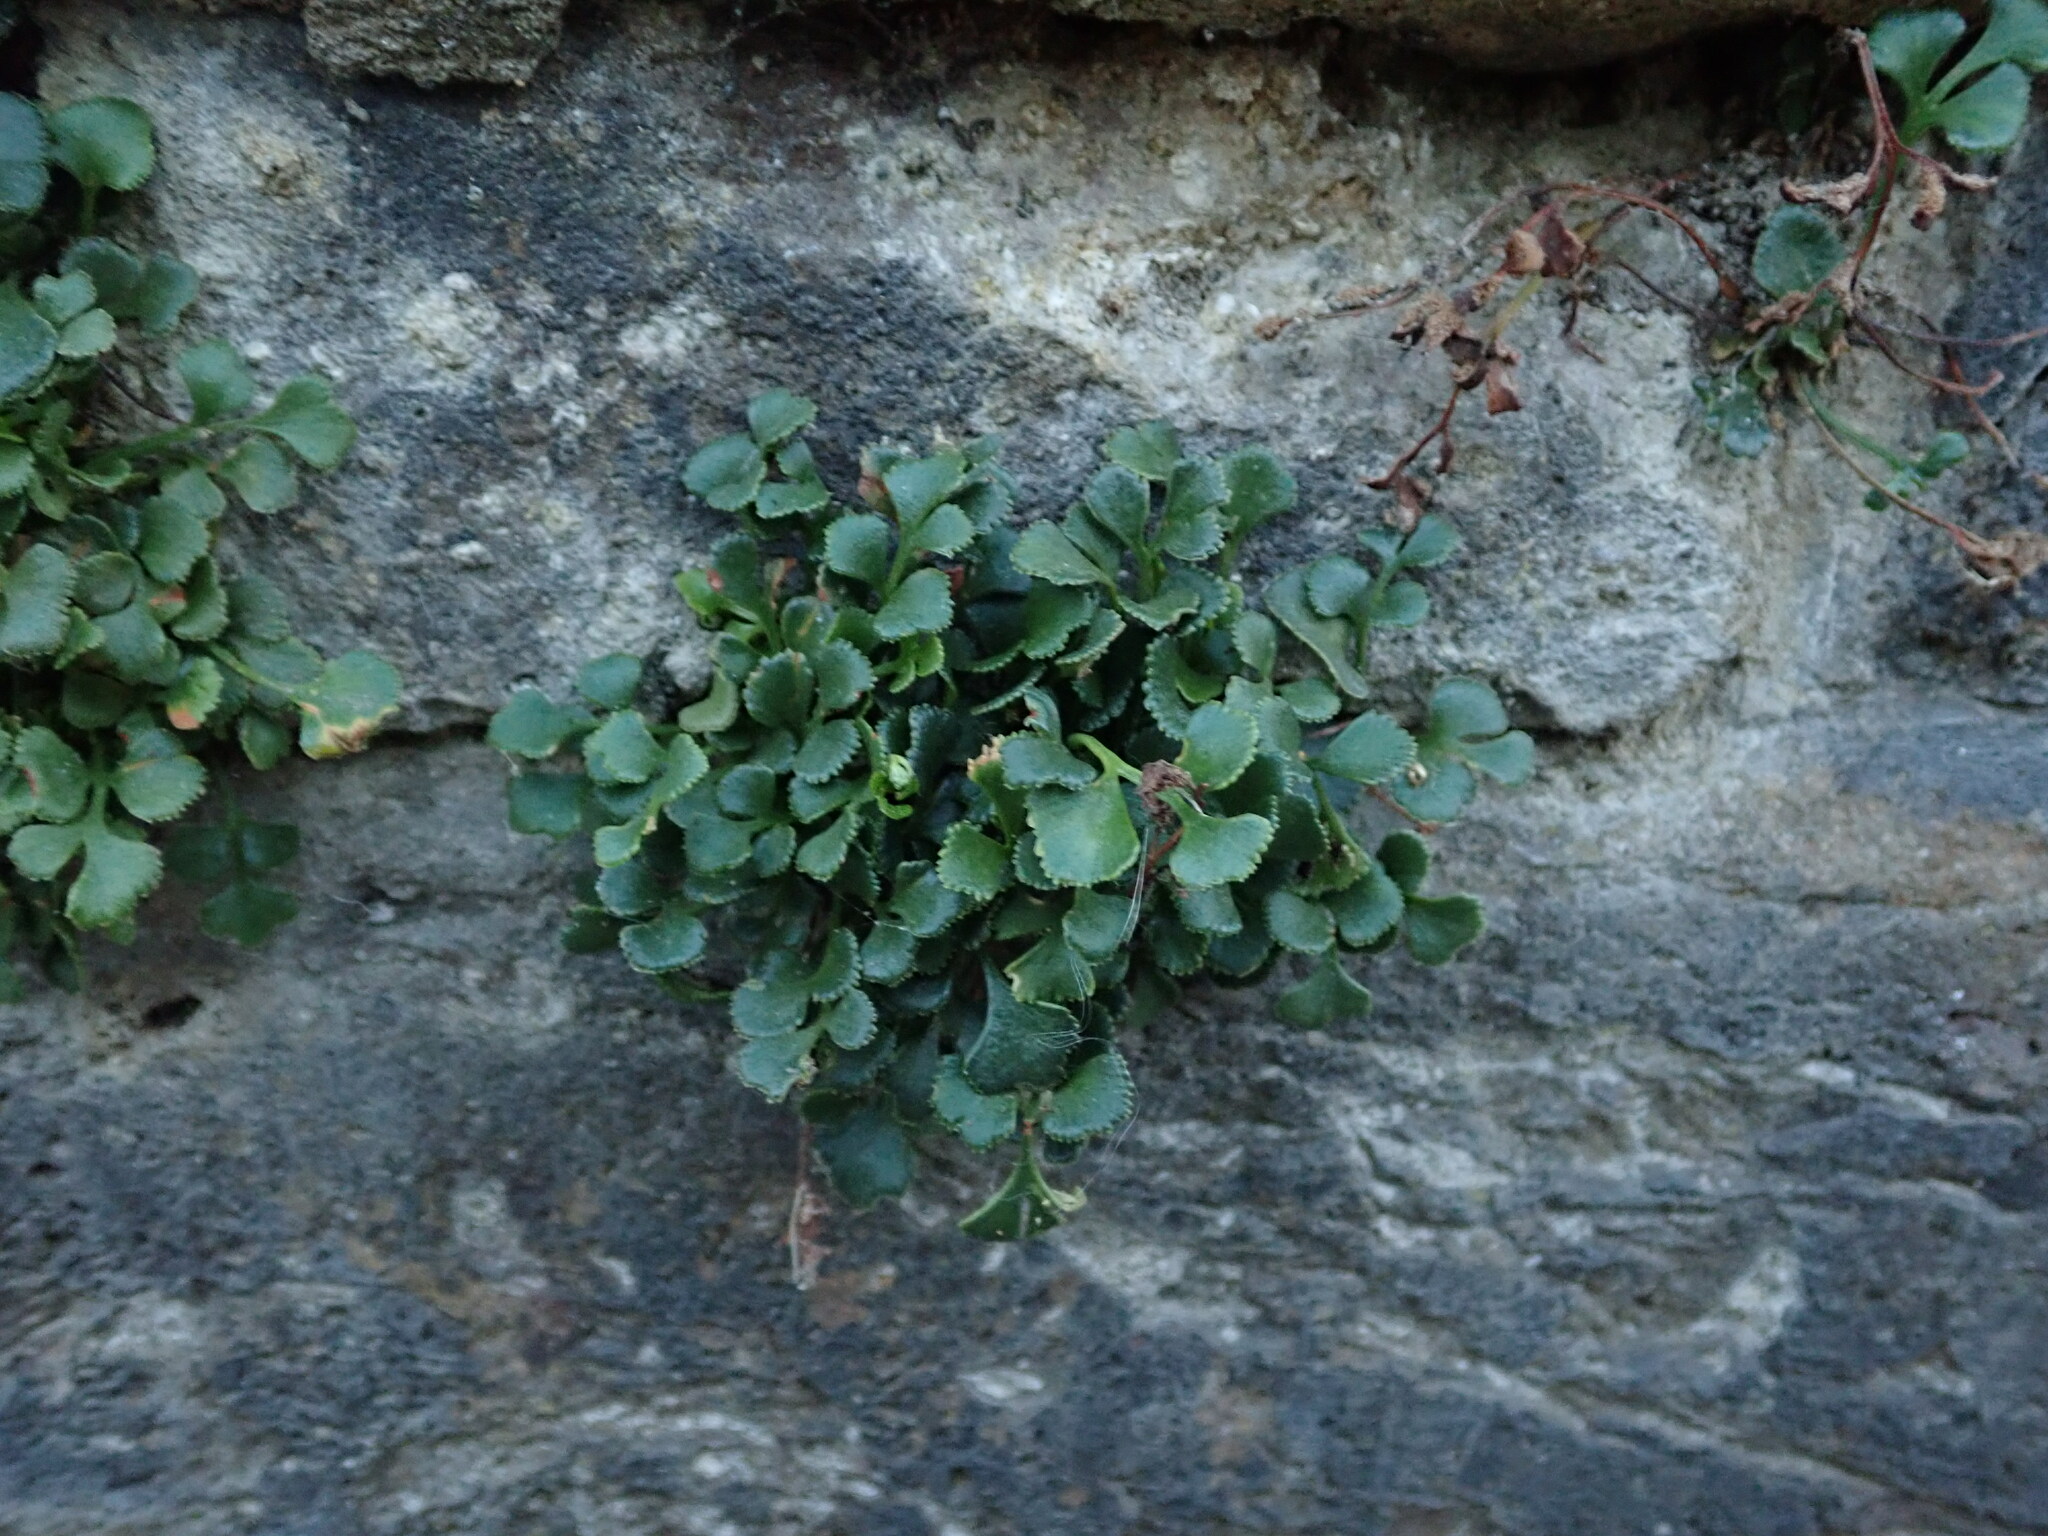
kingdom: Plantae
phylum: Tracheophyta
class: Polypodiopsida
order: Polypodiales
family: Aspleniaceae
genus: Asplenium
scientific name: Asplenium ruta-muraria
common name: Wall-rue
